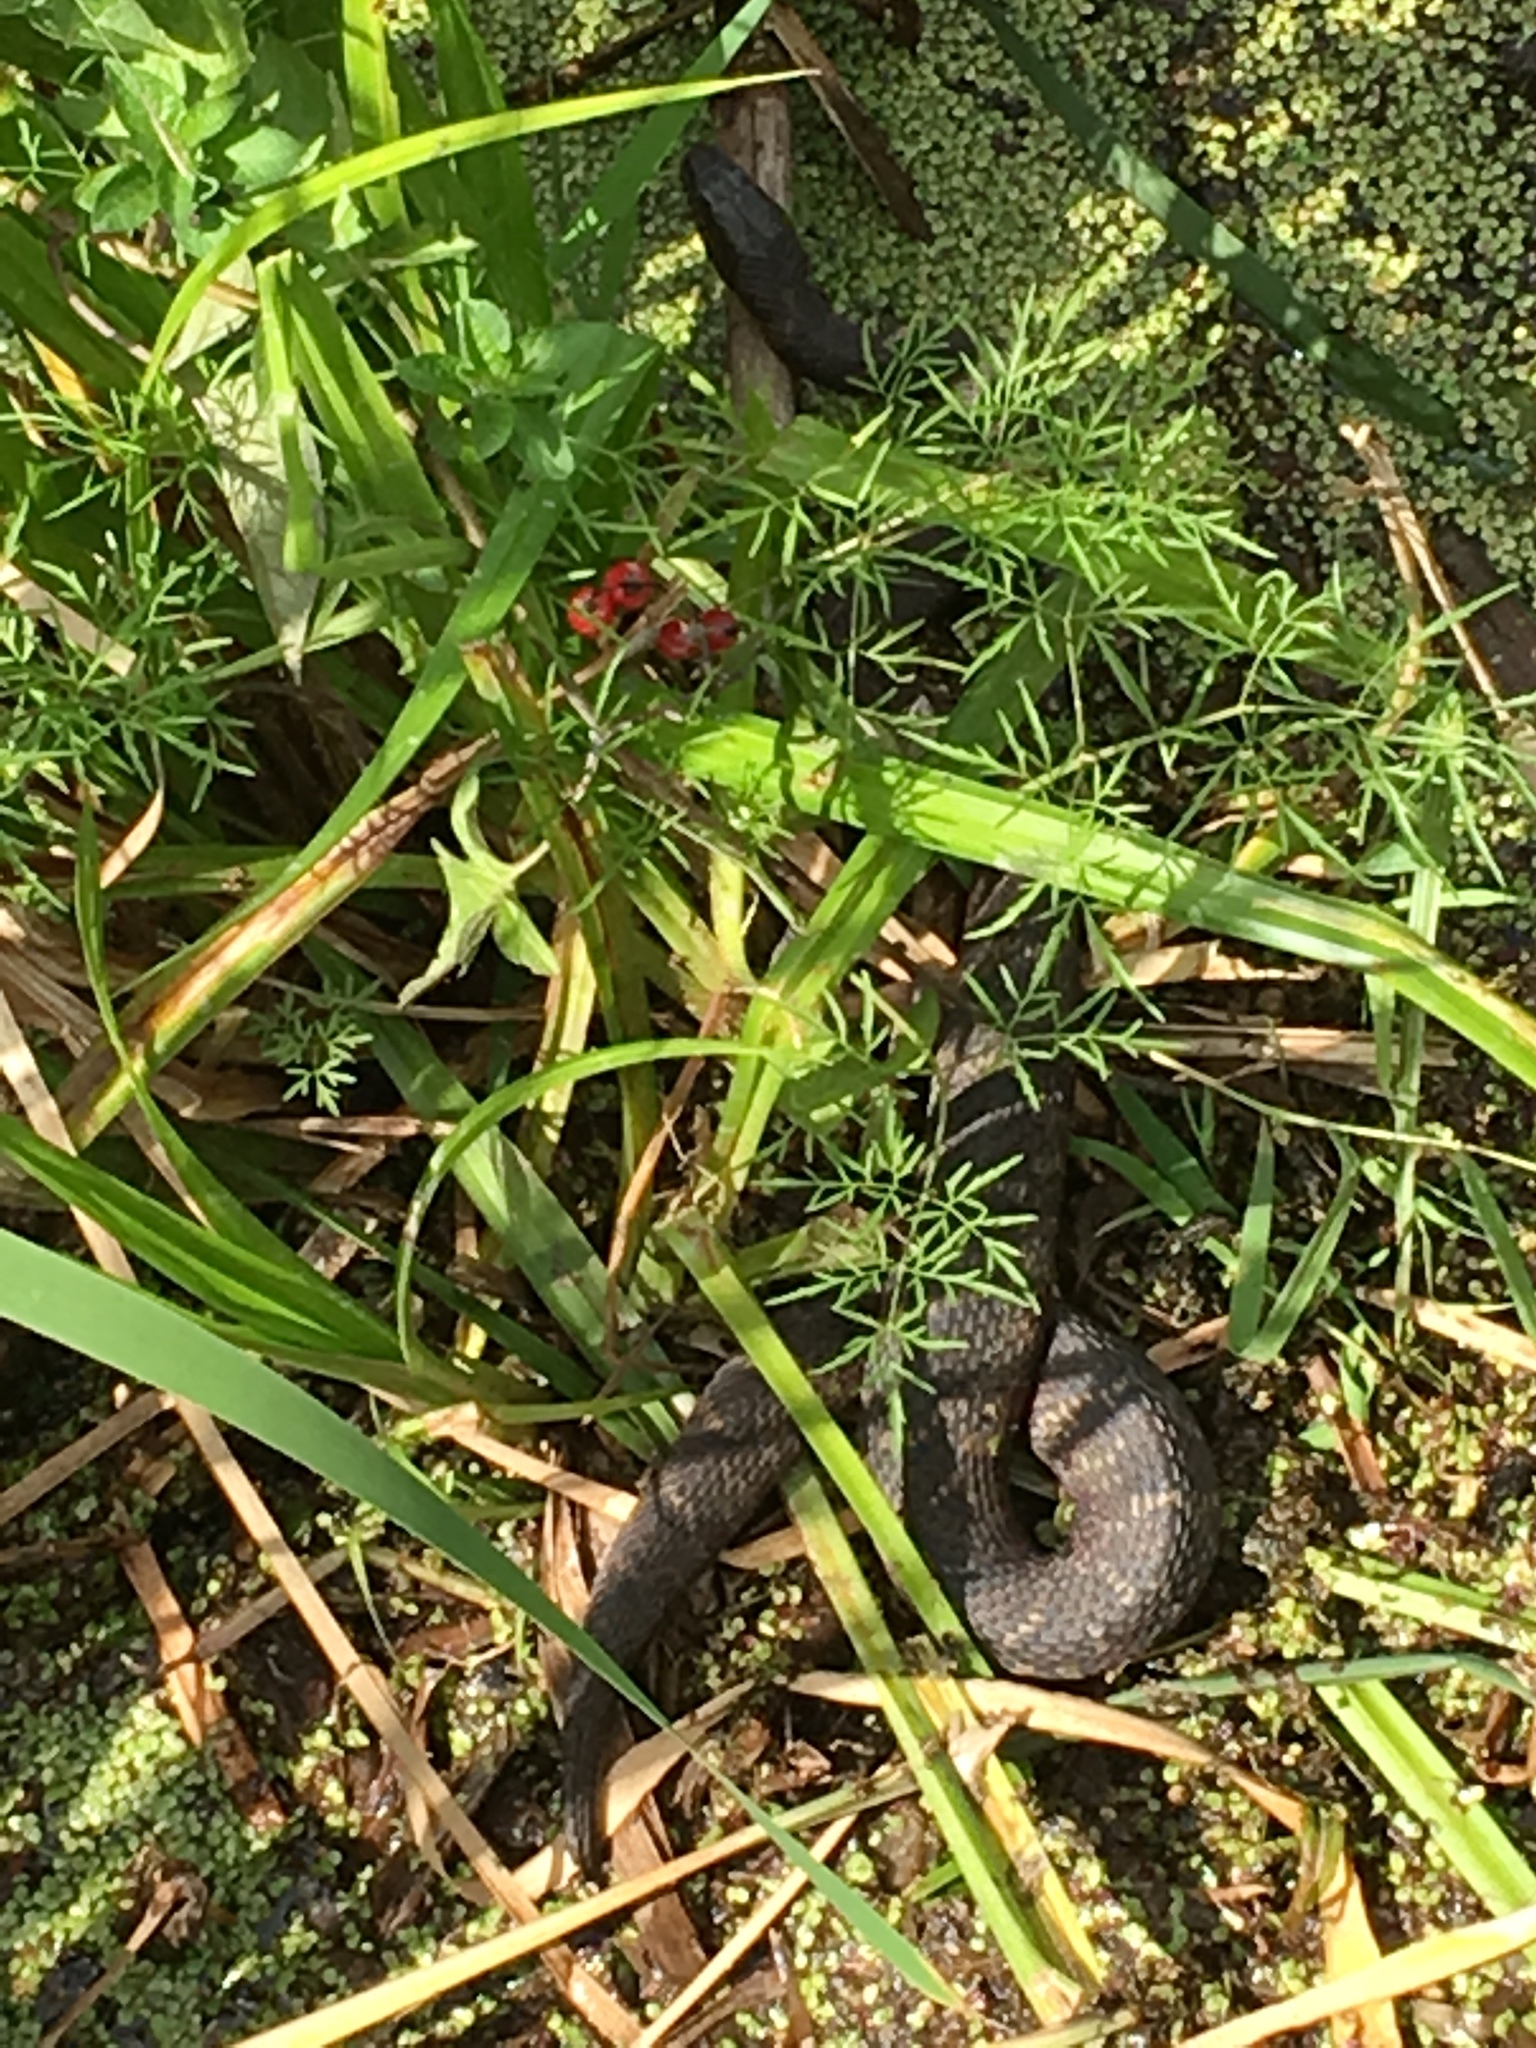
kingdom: Animalia
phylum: Chordata
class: Squamata
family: Colubridae
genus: Nerodia
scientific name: Nerodia sipedon
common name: Northern water snake
